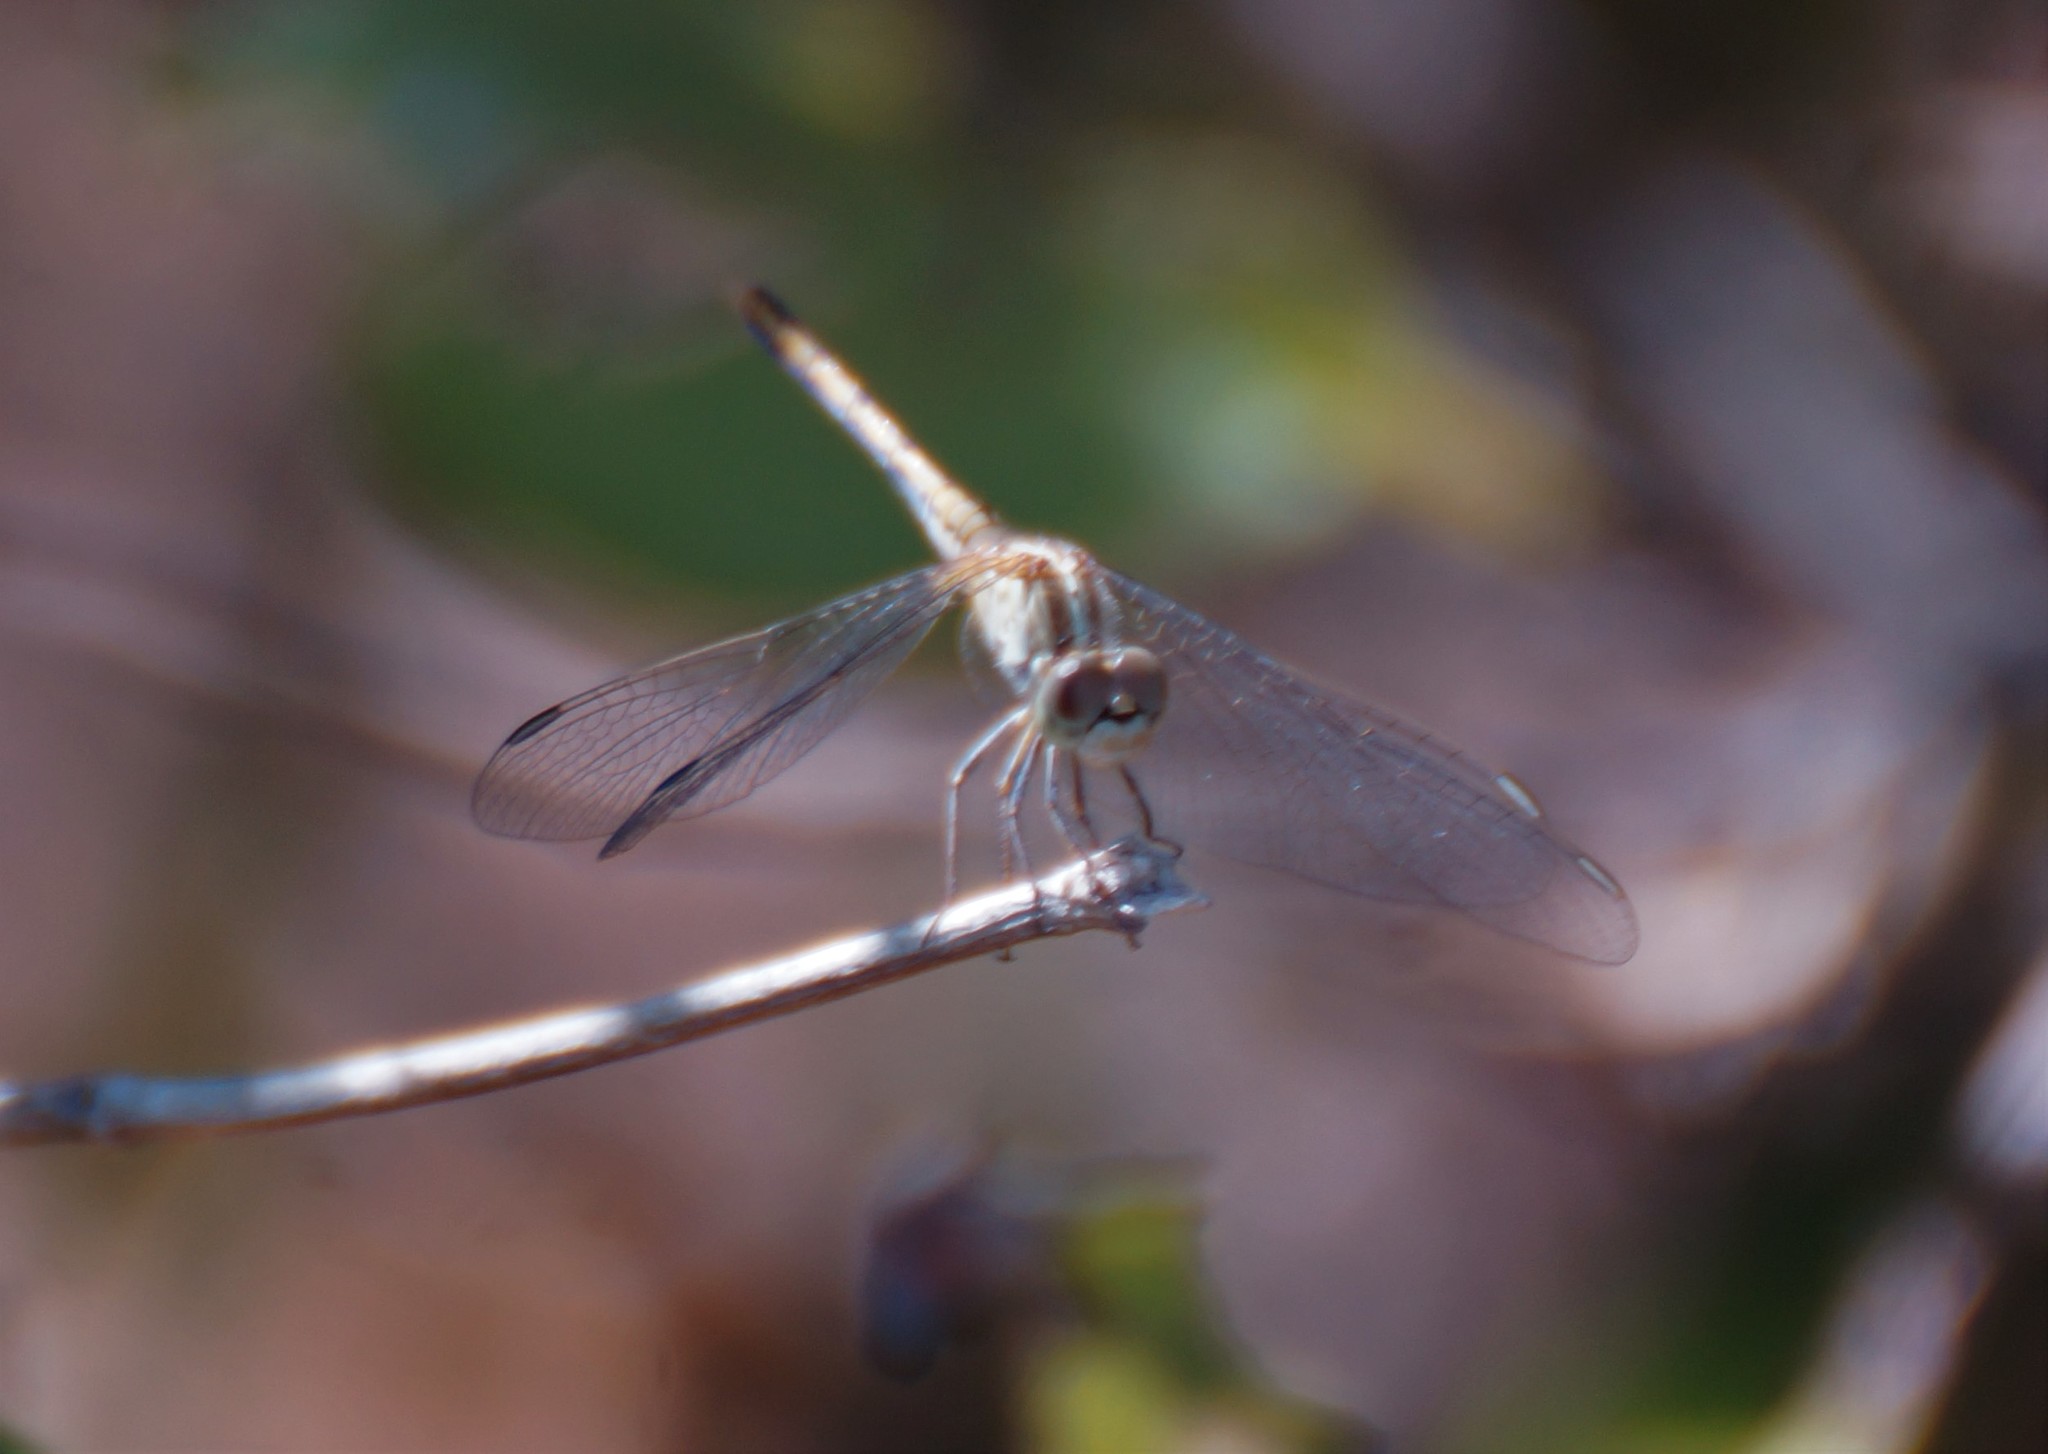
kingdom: Animalia
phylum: Arthropoda
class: Insecta
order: Odonata
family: Libellulidae
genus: Diplacodes
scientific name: Diplacodes bipunctata
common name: Red percher dragonfly
